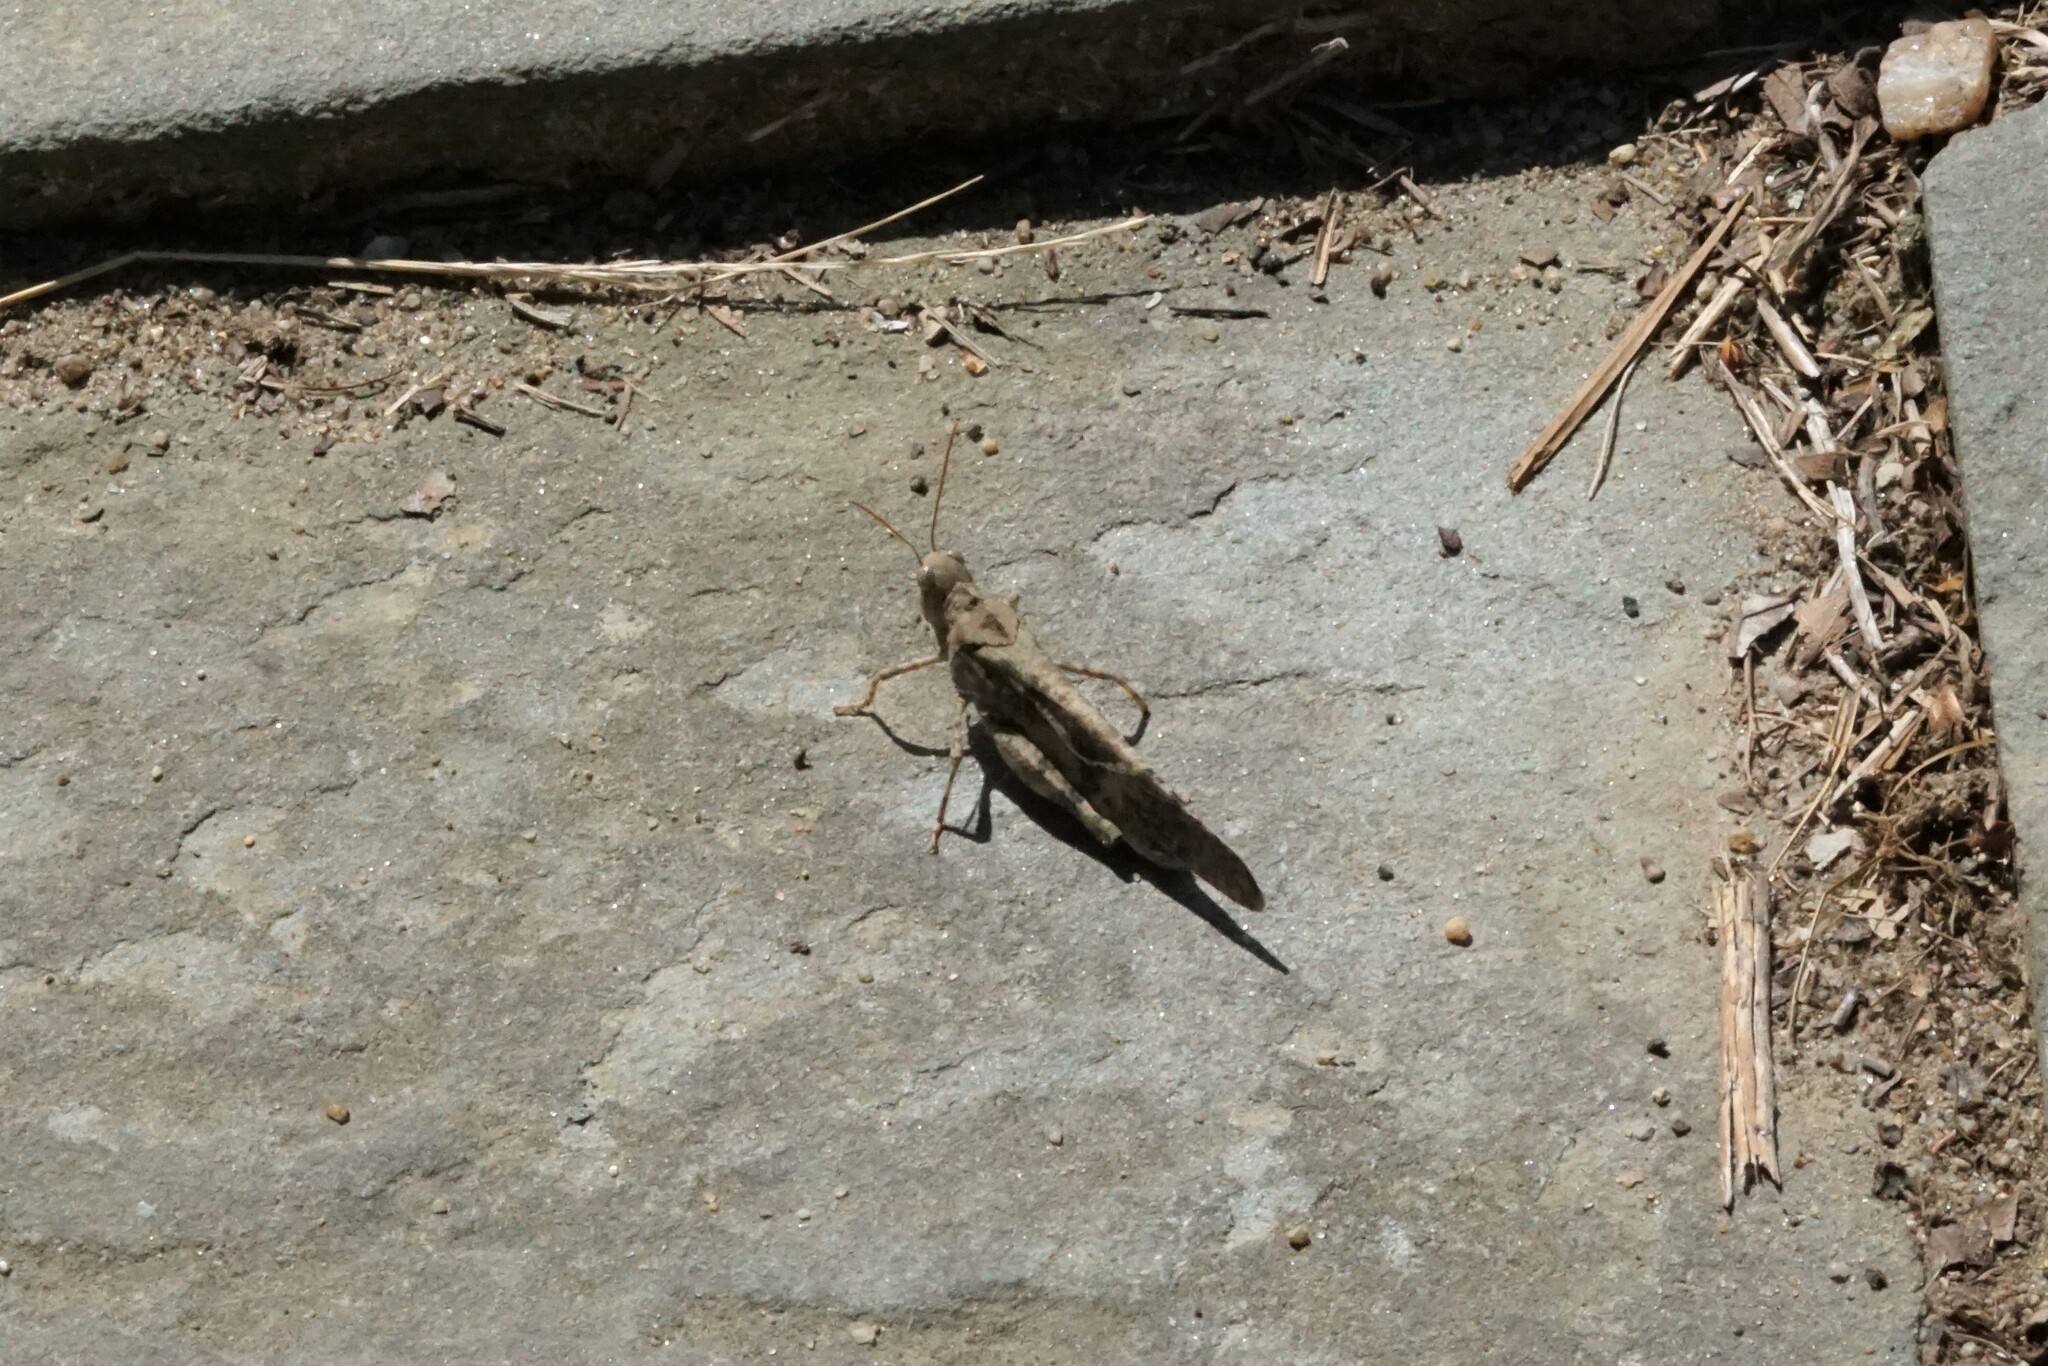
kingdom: Animalia
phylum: Arthropoda
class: Insecta
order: Orthoptera
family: Acrididae
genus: Dissosteira
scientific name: Dissosteira carolina
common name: Carolina grasshopper
